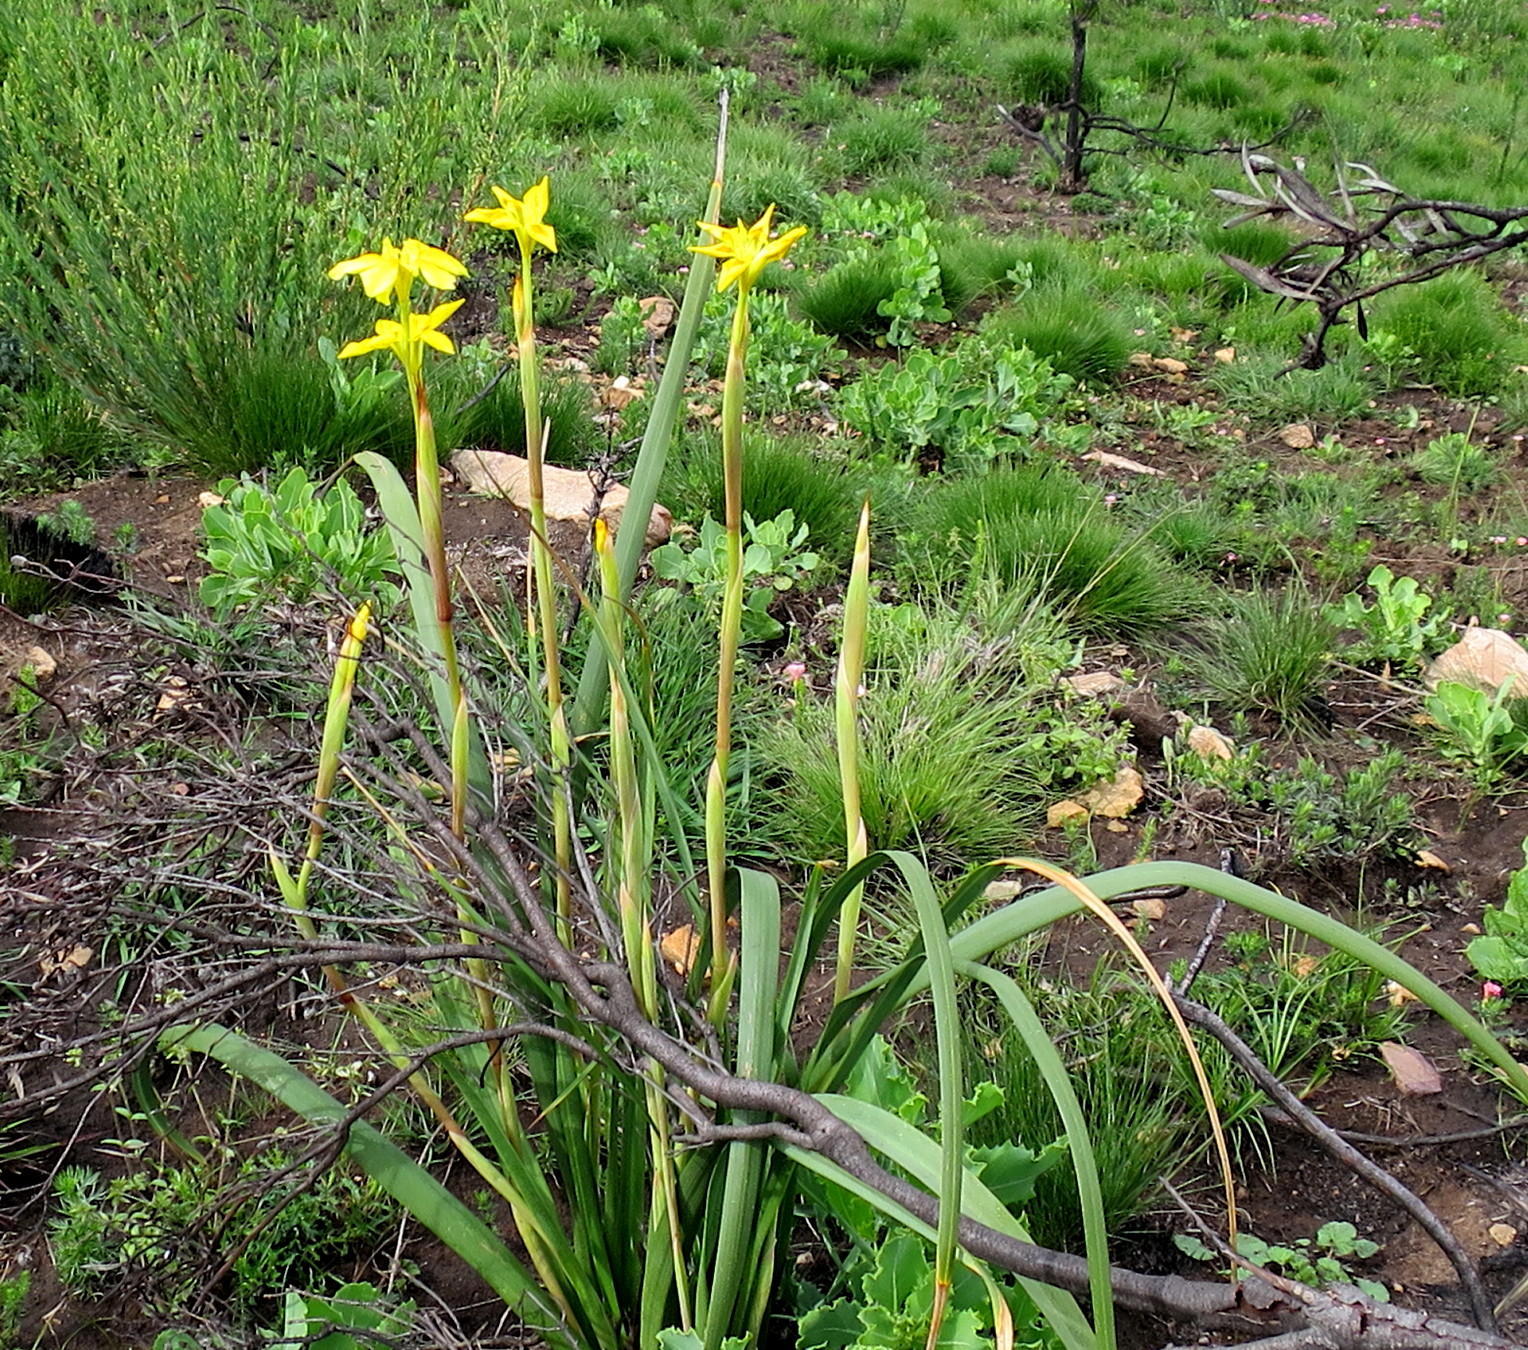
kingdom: Plantae
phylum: Tracheophyta
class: Liliopsida
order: Asparagales
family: Iridaceae
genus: Moraea
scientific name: Moraea spathulata
